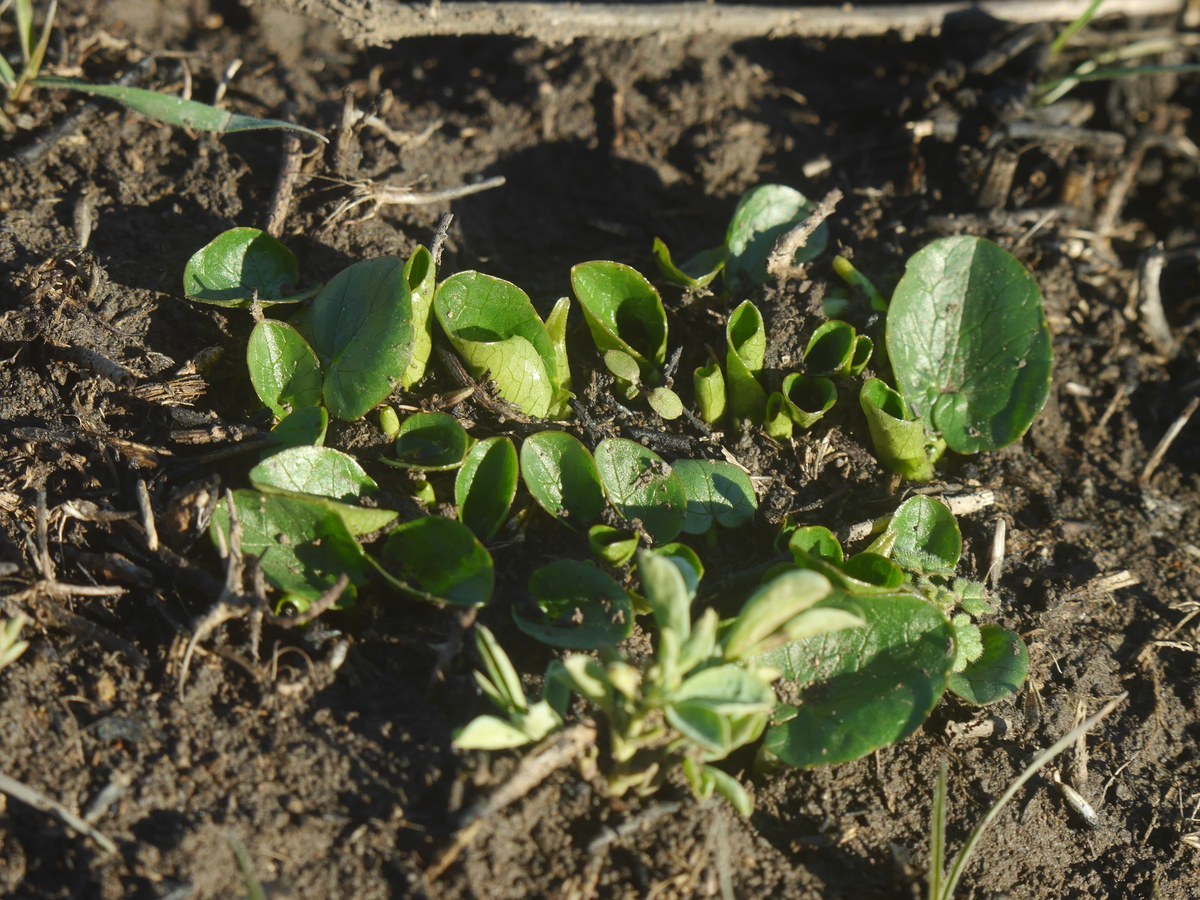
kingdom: Plantae
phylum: Tracheophyta
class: Magnoliopsida
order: Ranunculales
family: Ranunculaceae
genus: Ficaria
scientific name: Ficaria verna
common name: Lesser celandine
